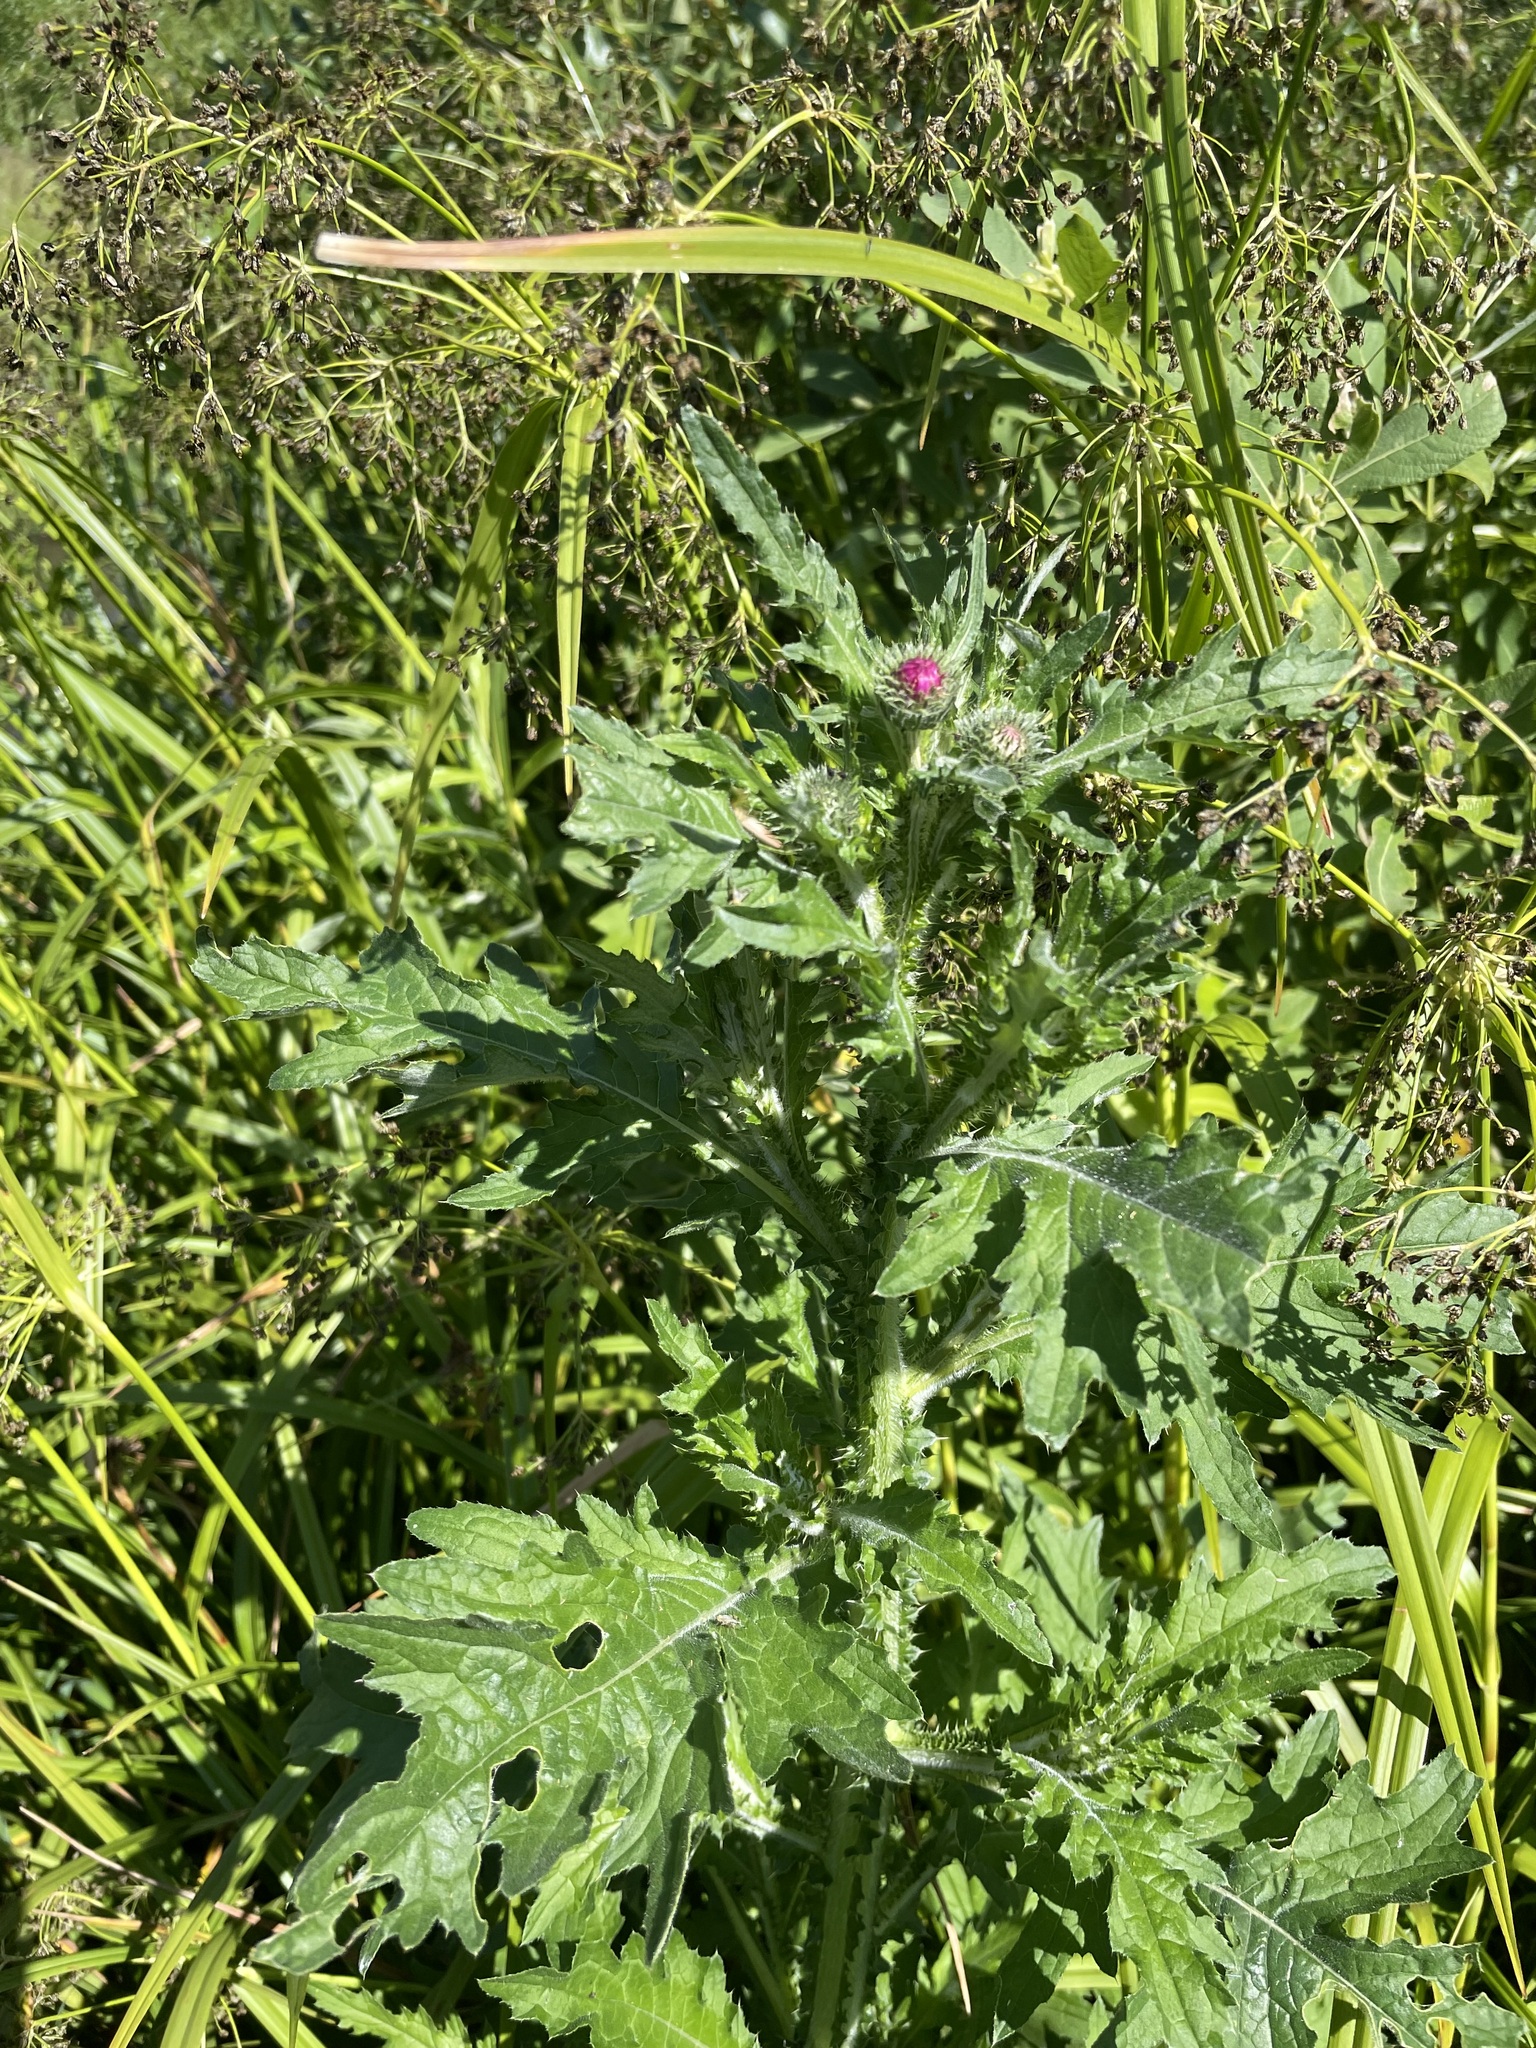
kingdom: Plantae
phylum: Tracheophyta
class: Magnoliopsida
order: Asterales
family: Asteraceae
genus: Carduus
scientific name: Carduus crispus
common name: Welted thistle
